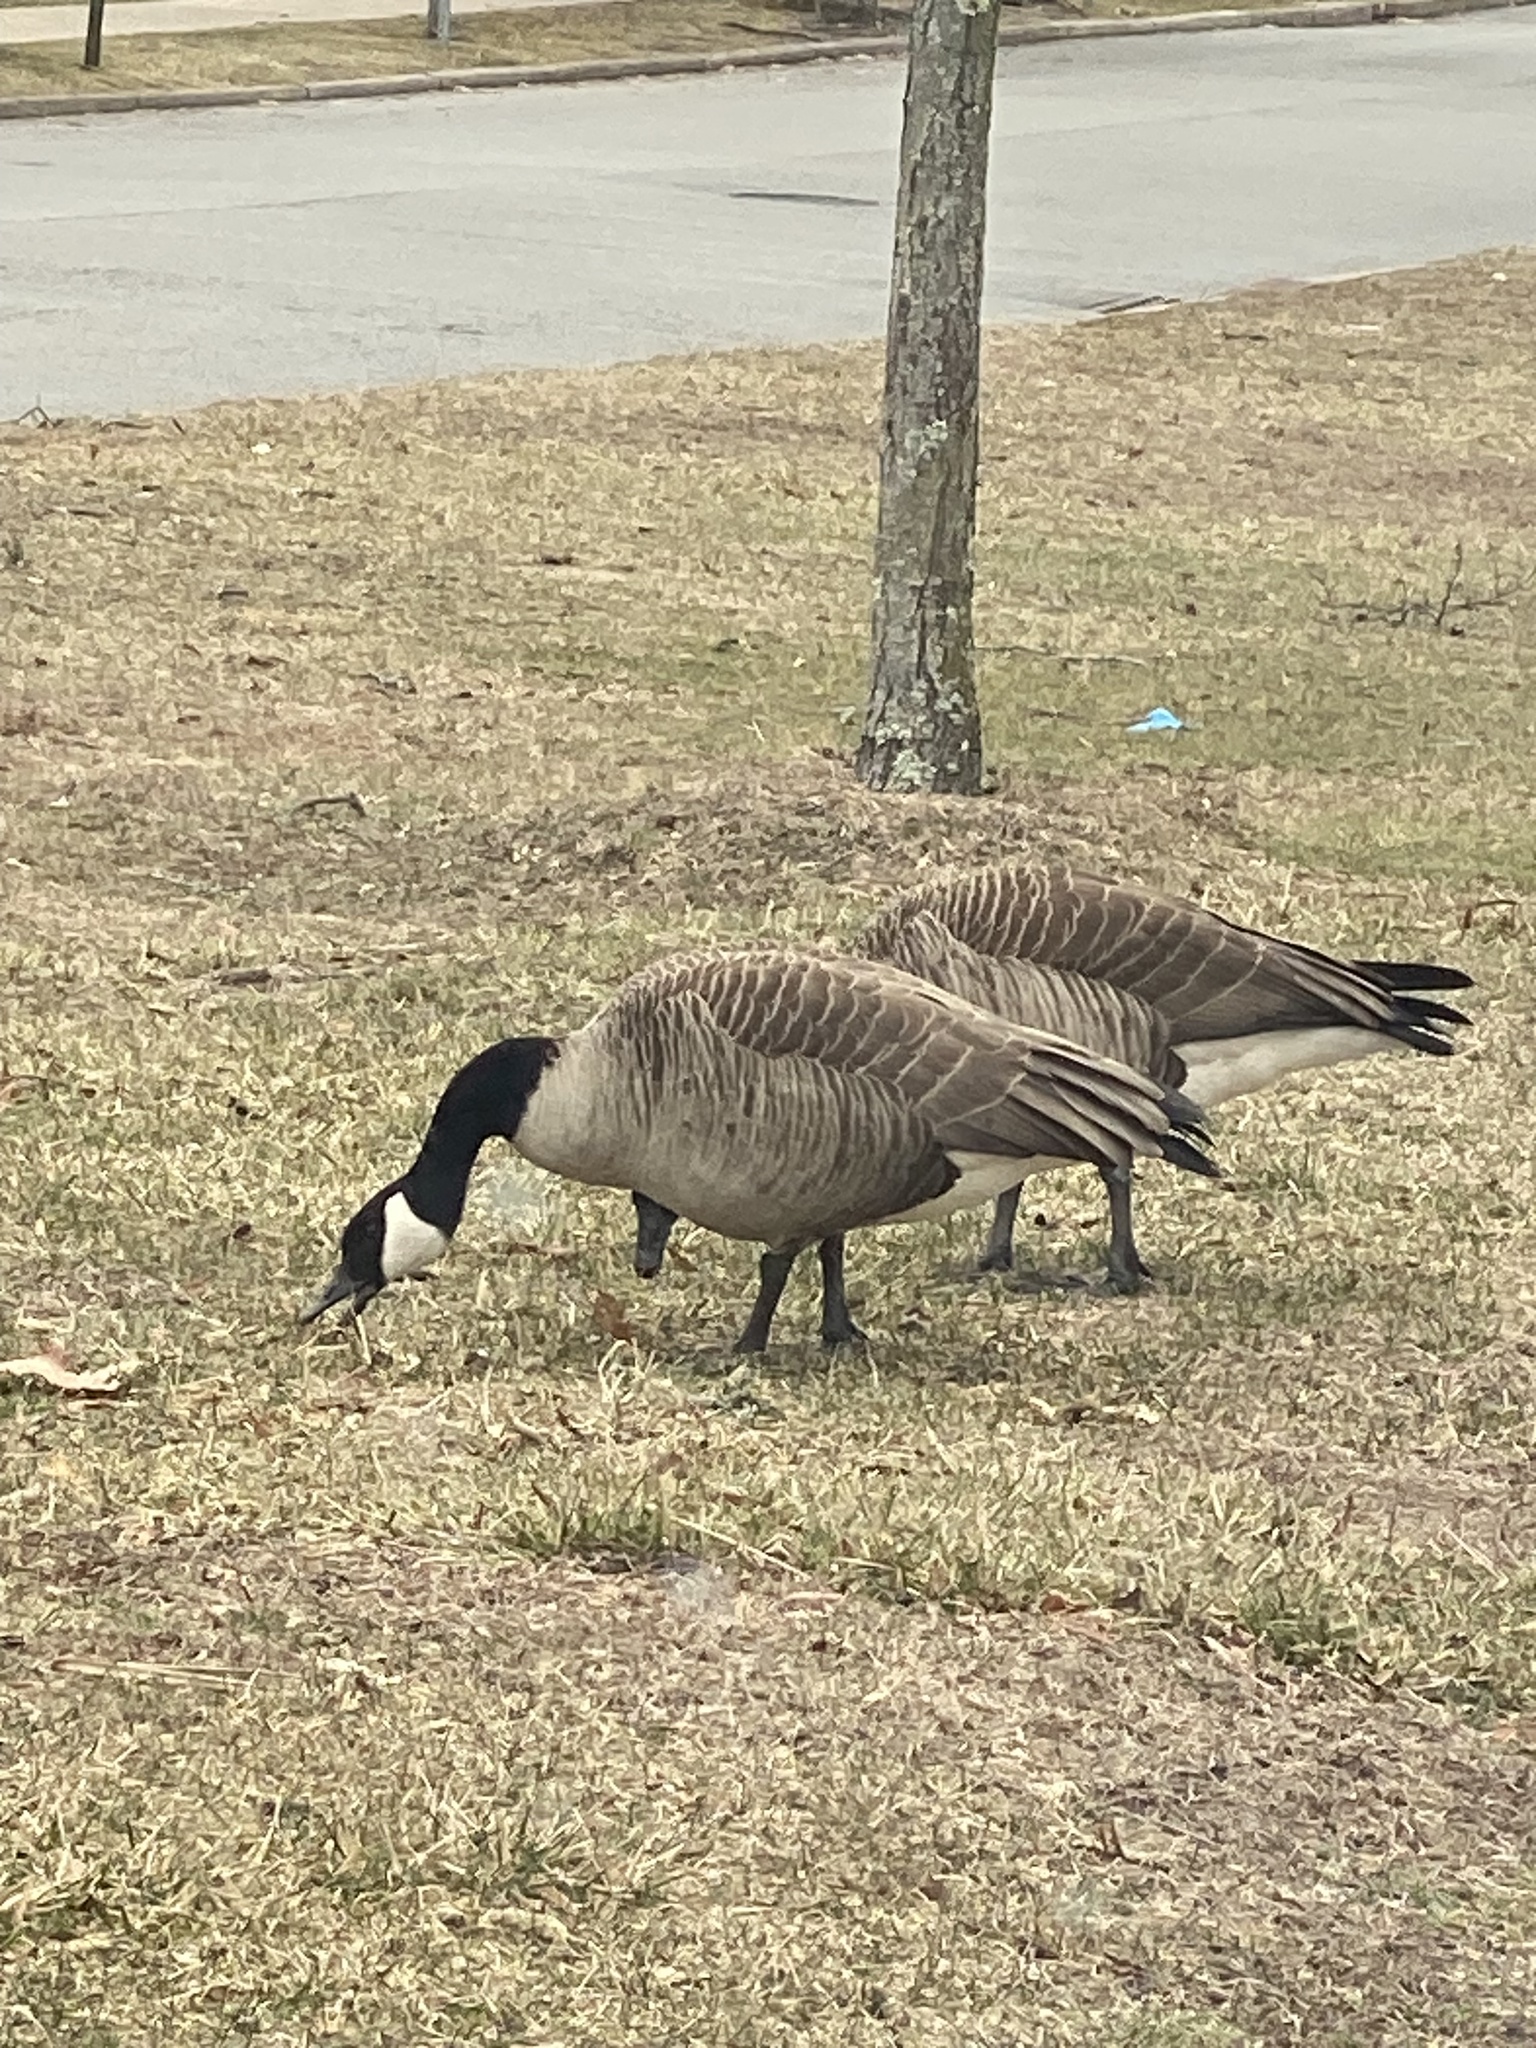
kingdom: Animalia
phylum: Chordata
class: Aves
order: Anseriformes
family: Anatidae
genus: Branta
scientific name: Branta canadensis
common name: Canada goose
